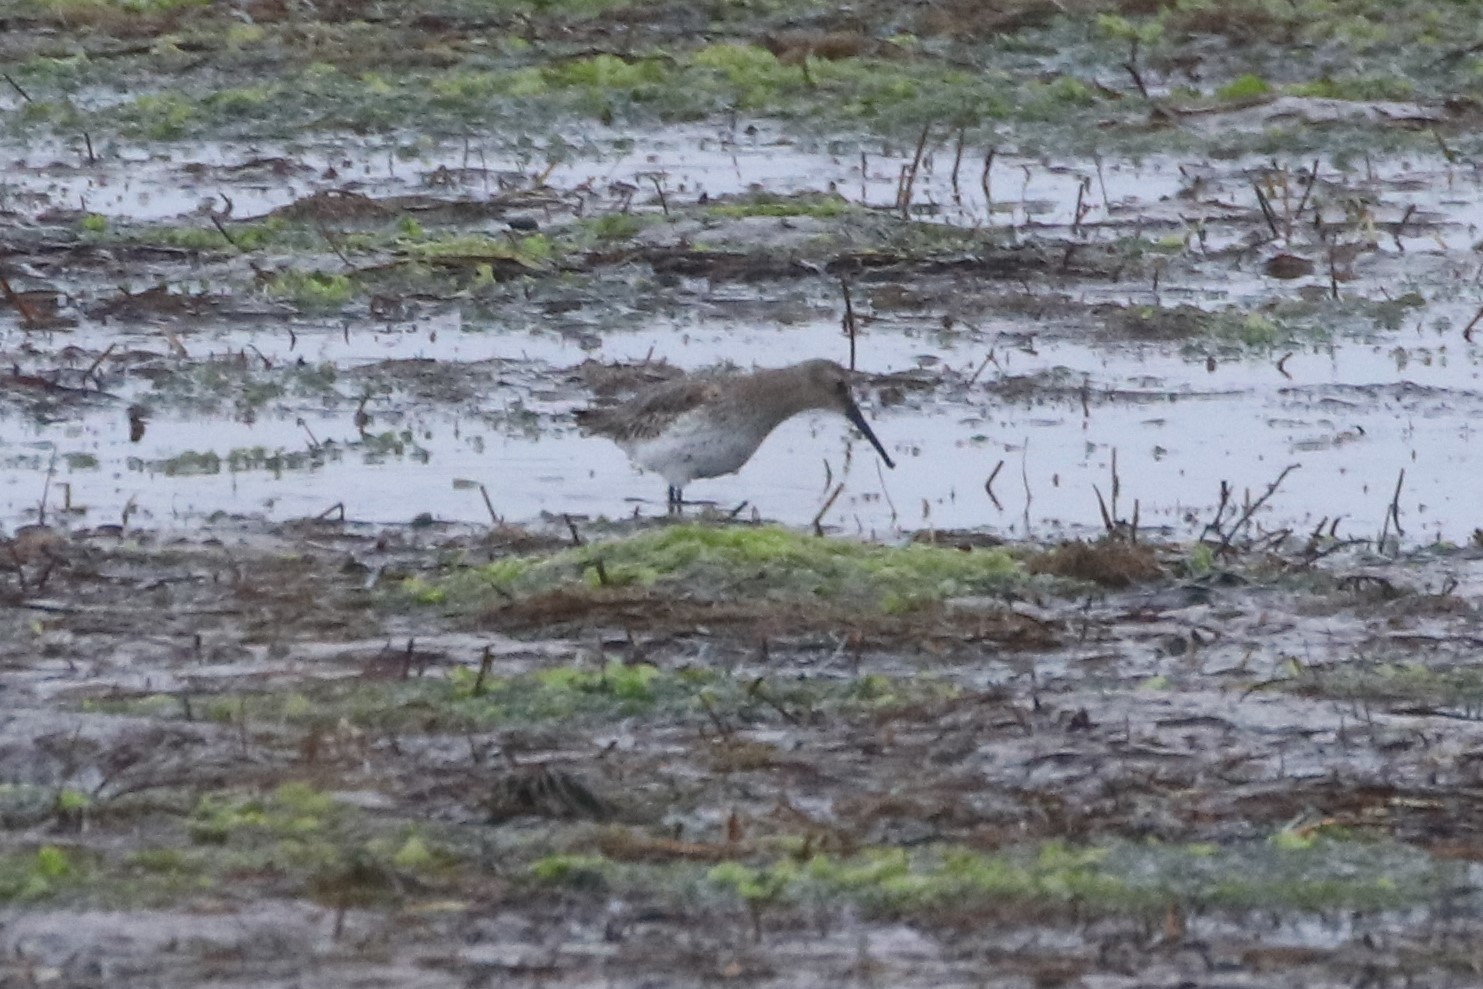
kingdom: Animalia
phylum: Chordata
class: Aves
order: Charadriiformes
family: Scolopacidae
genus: Calidris
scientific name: Calidris alpina
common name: Dunlin
